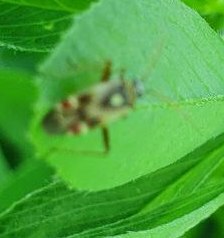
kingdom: Animalia
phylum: Arthropoda
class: Insecta
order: Hemiptera
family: Miridae
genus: Polymerus
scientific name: Polymerus vulneratus
